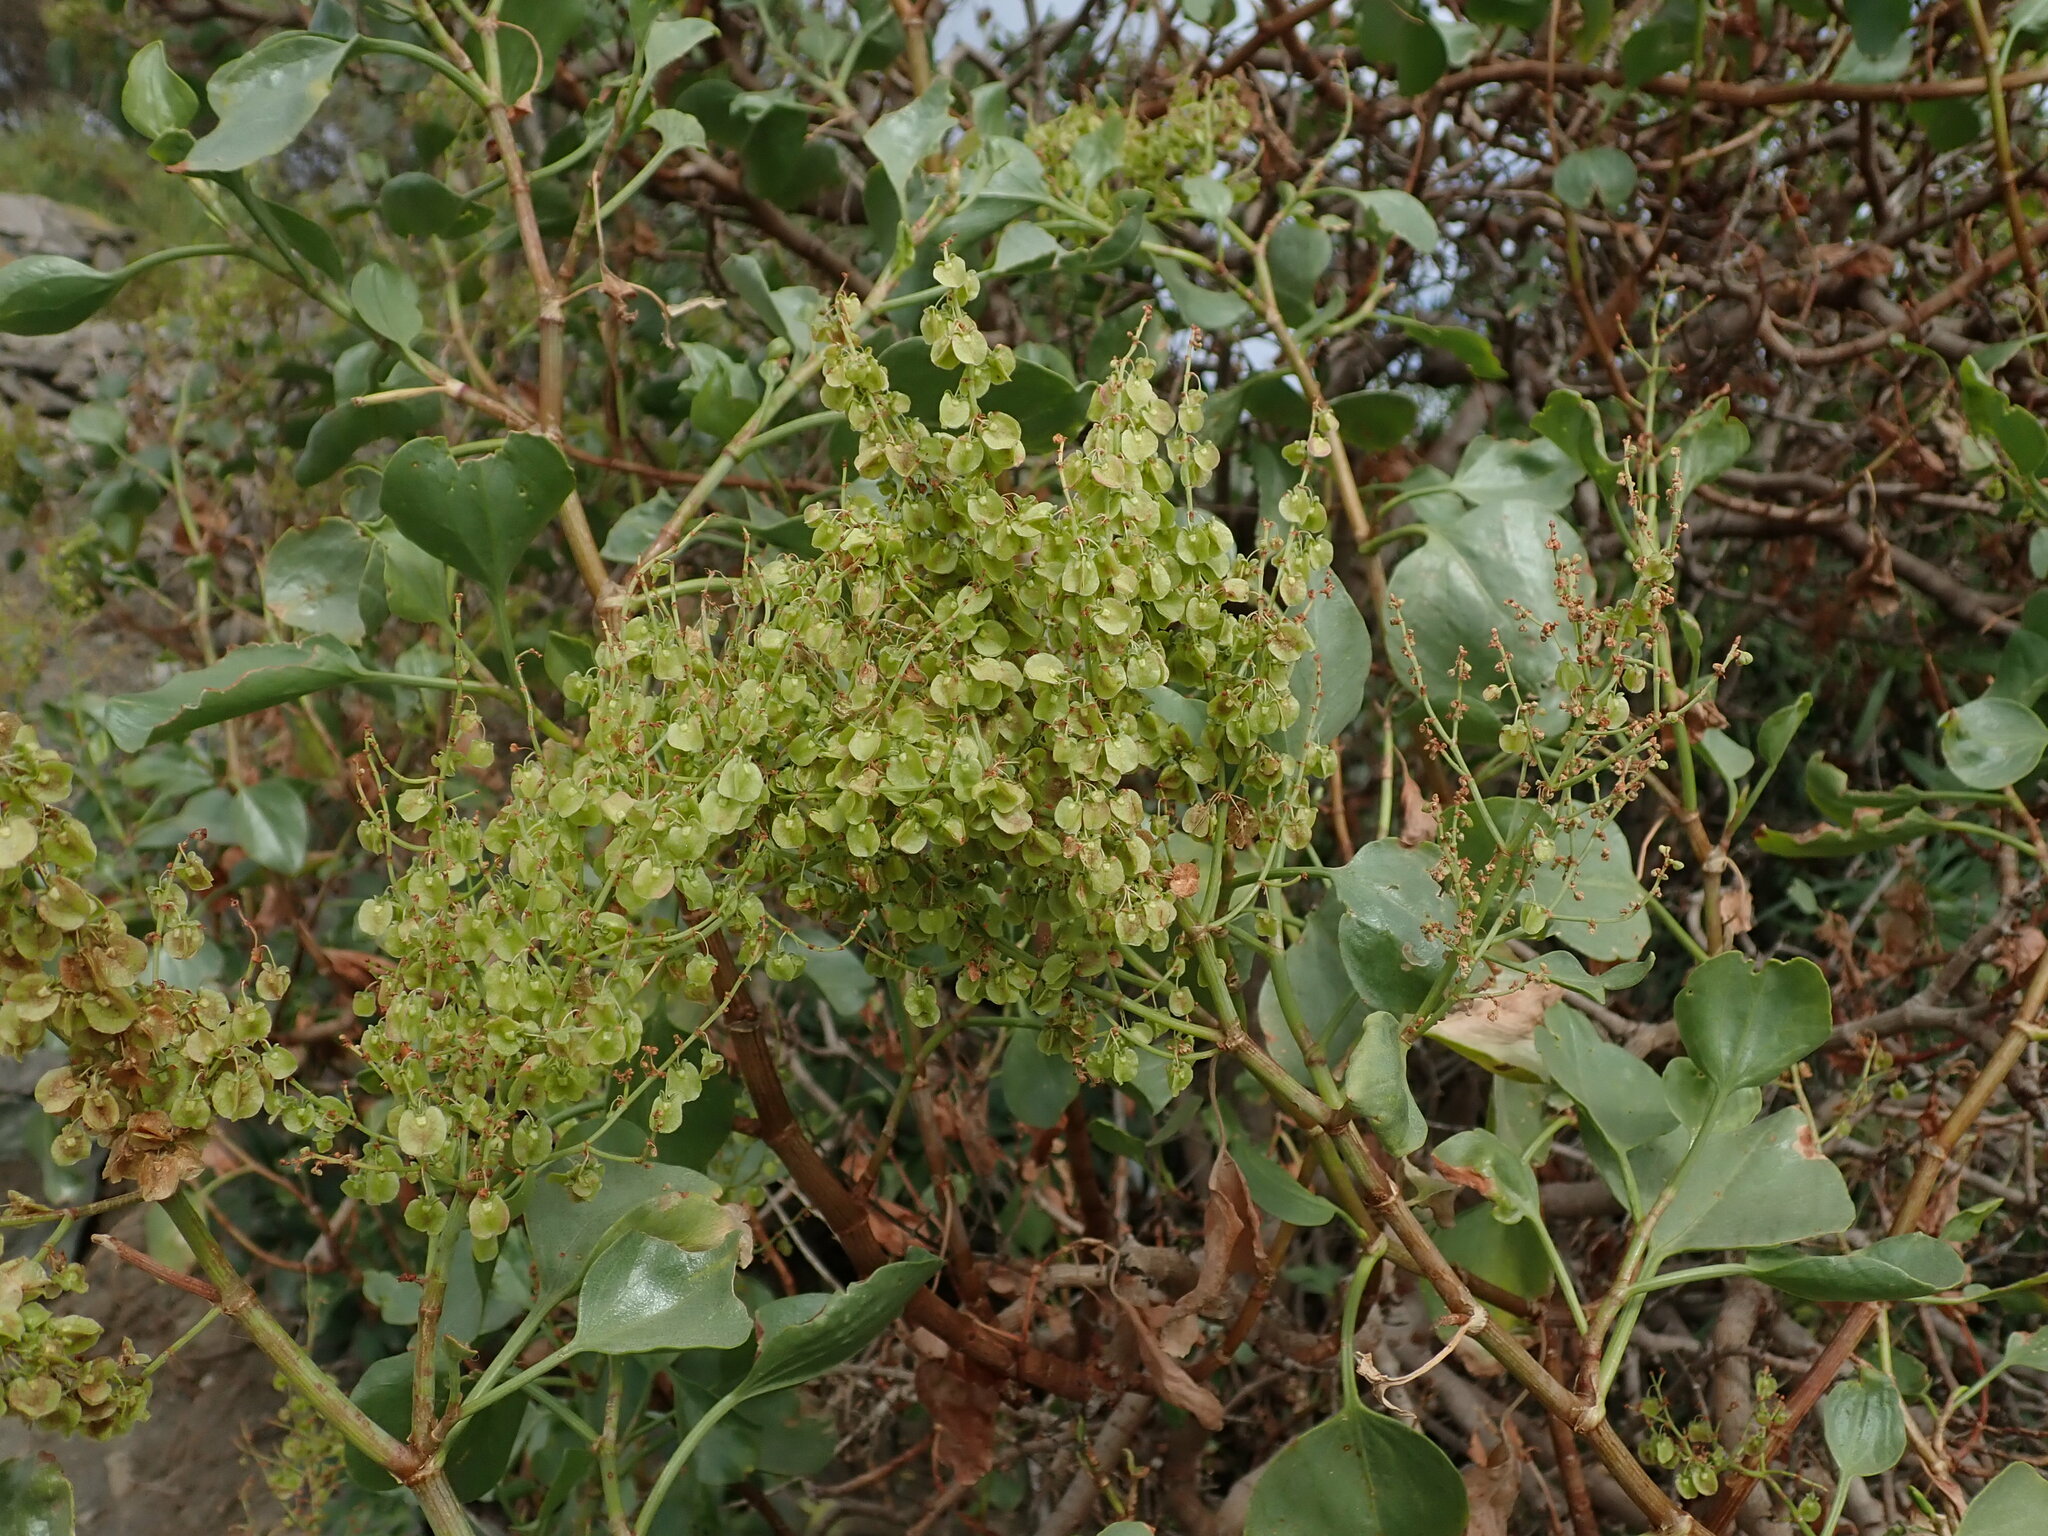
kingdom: Plantae
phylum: Tracheophyta
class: Magnoliopsida
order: Caryophyllales
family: Polygonaceae
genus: Rumex
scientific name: Rumex lunaria
